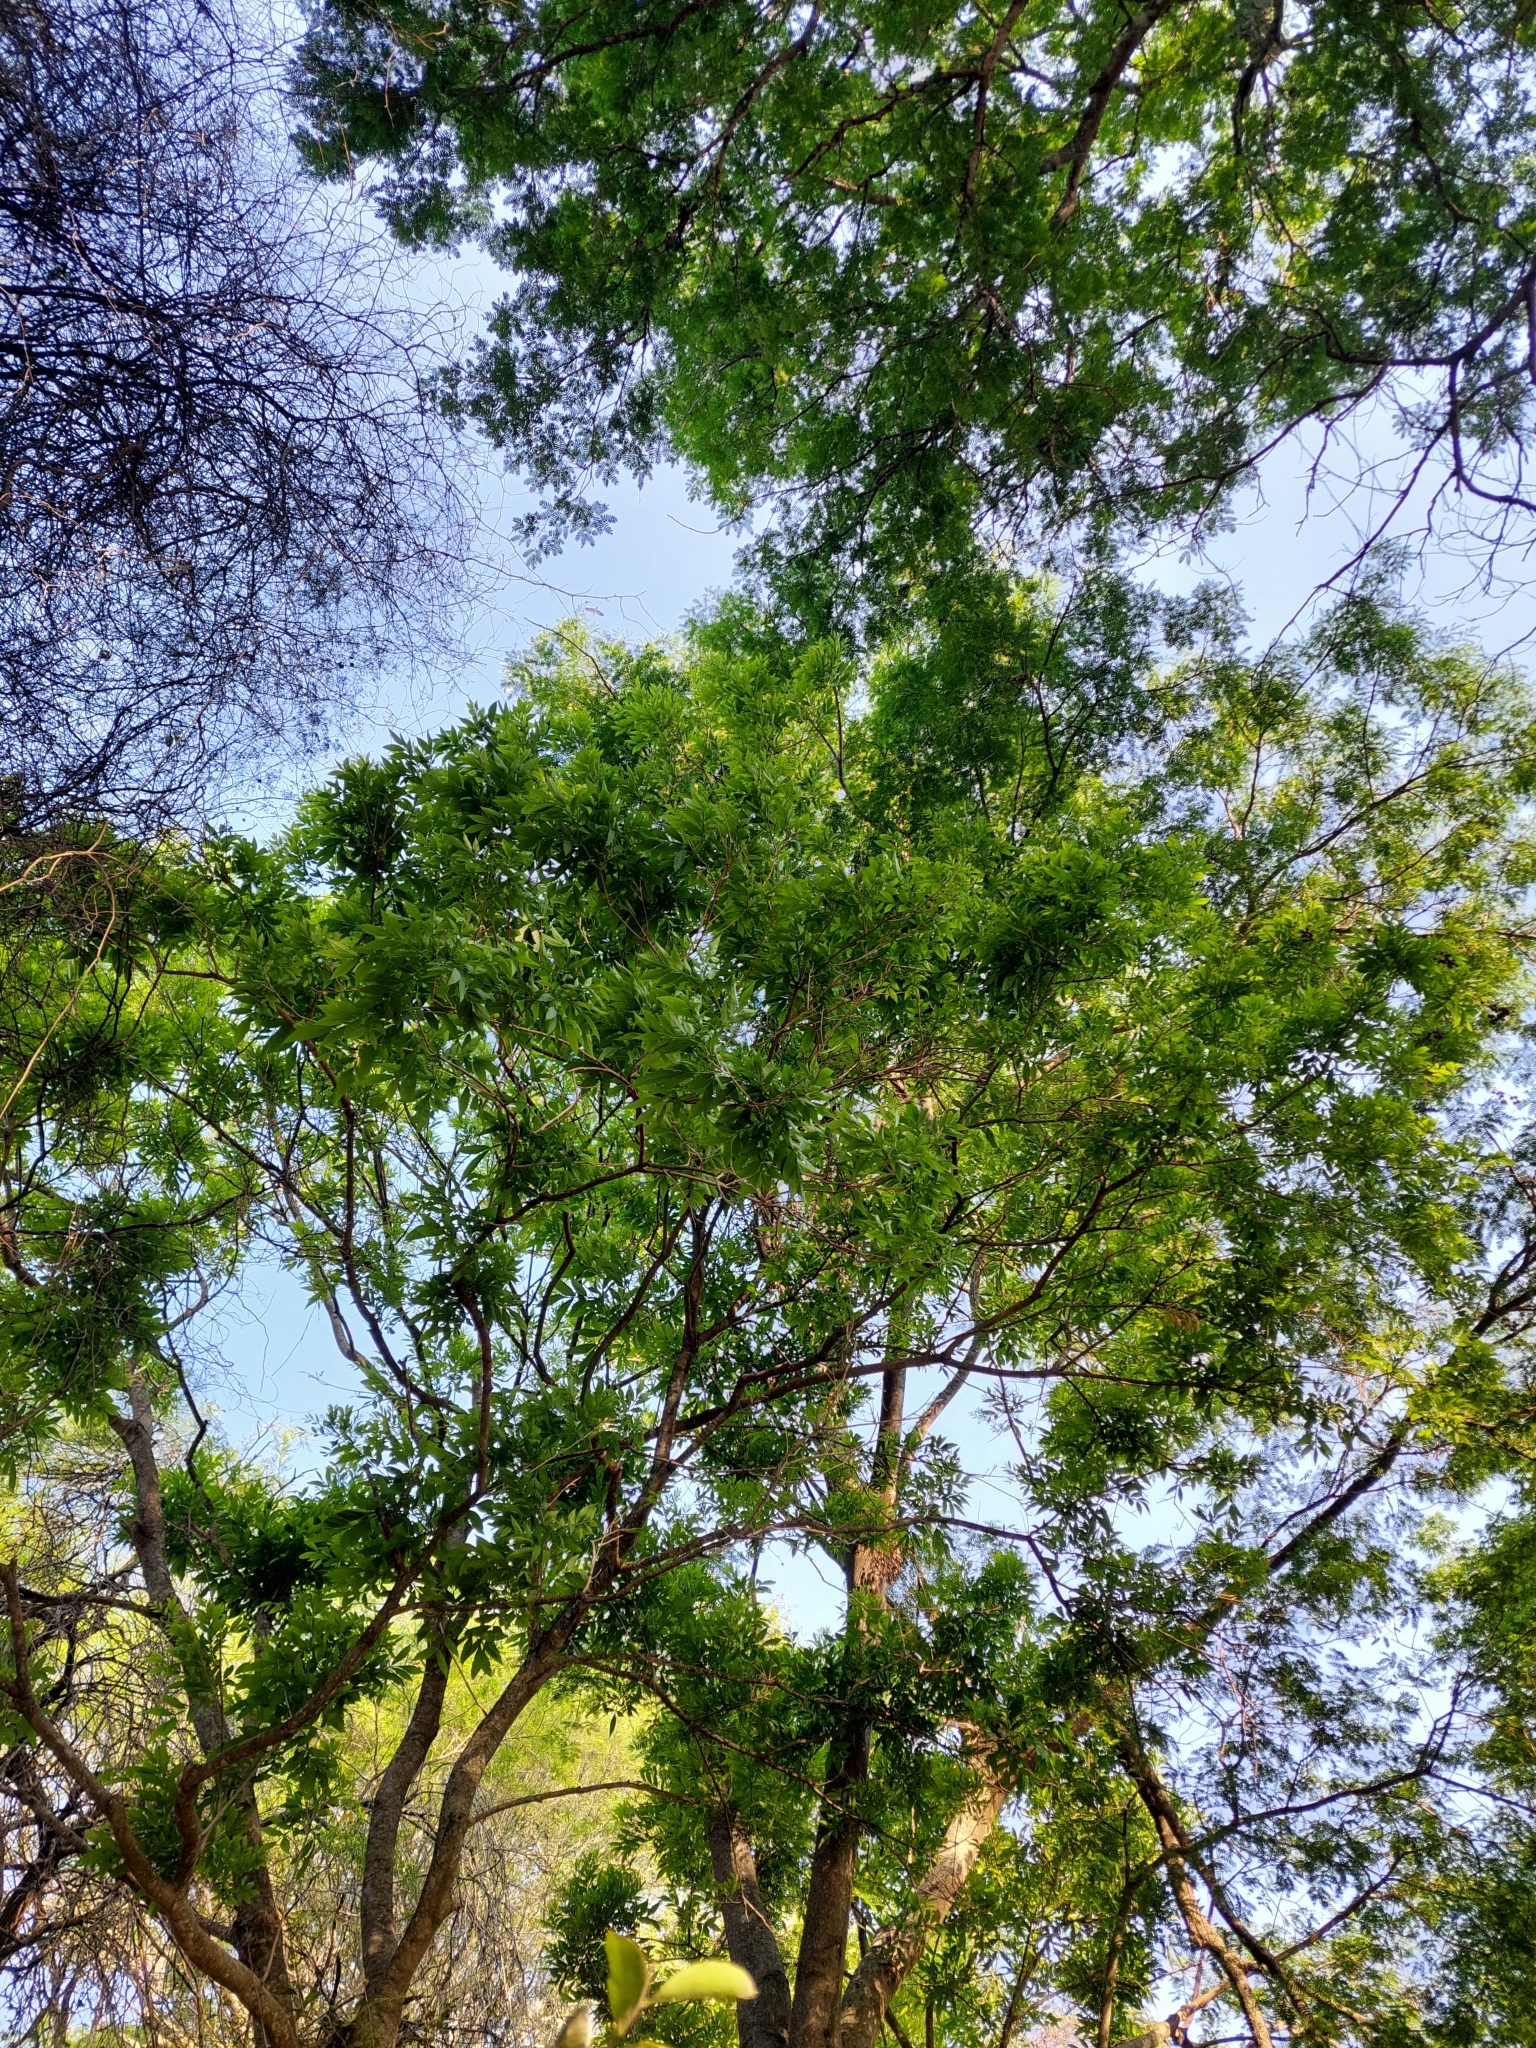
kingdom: Plantae
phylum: Tracheophyta
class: Magnoliopsida
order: Sapindales
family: Sapindaceae
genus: Sapindus
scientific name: Sapindus saponaria
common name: Wingleaf soapberry
